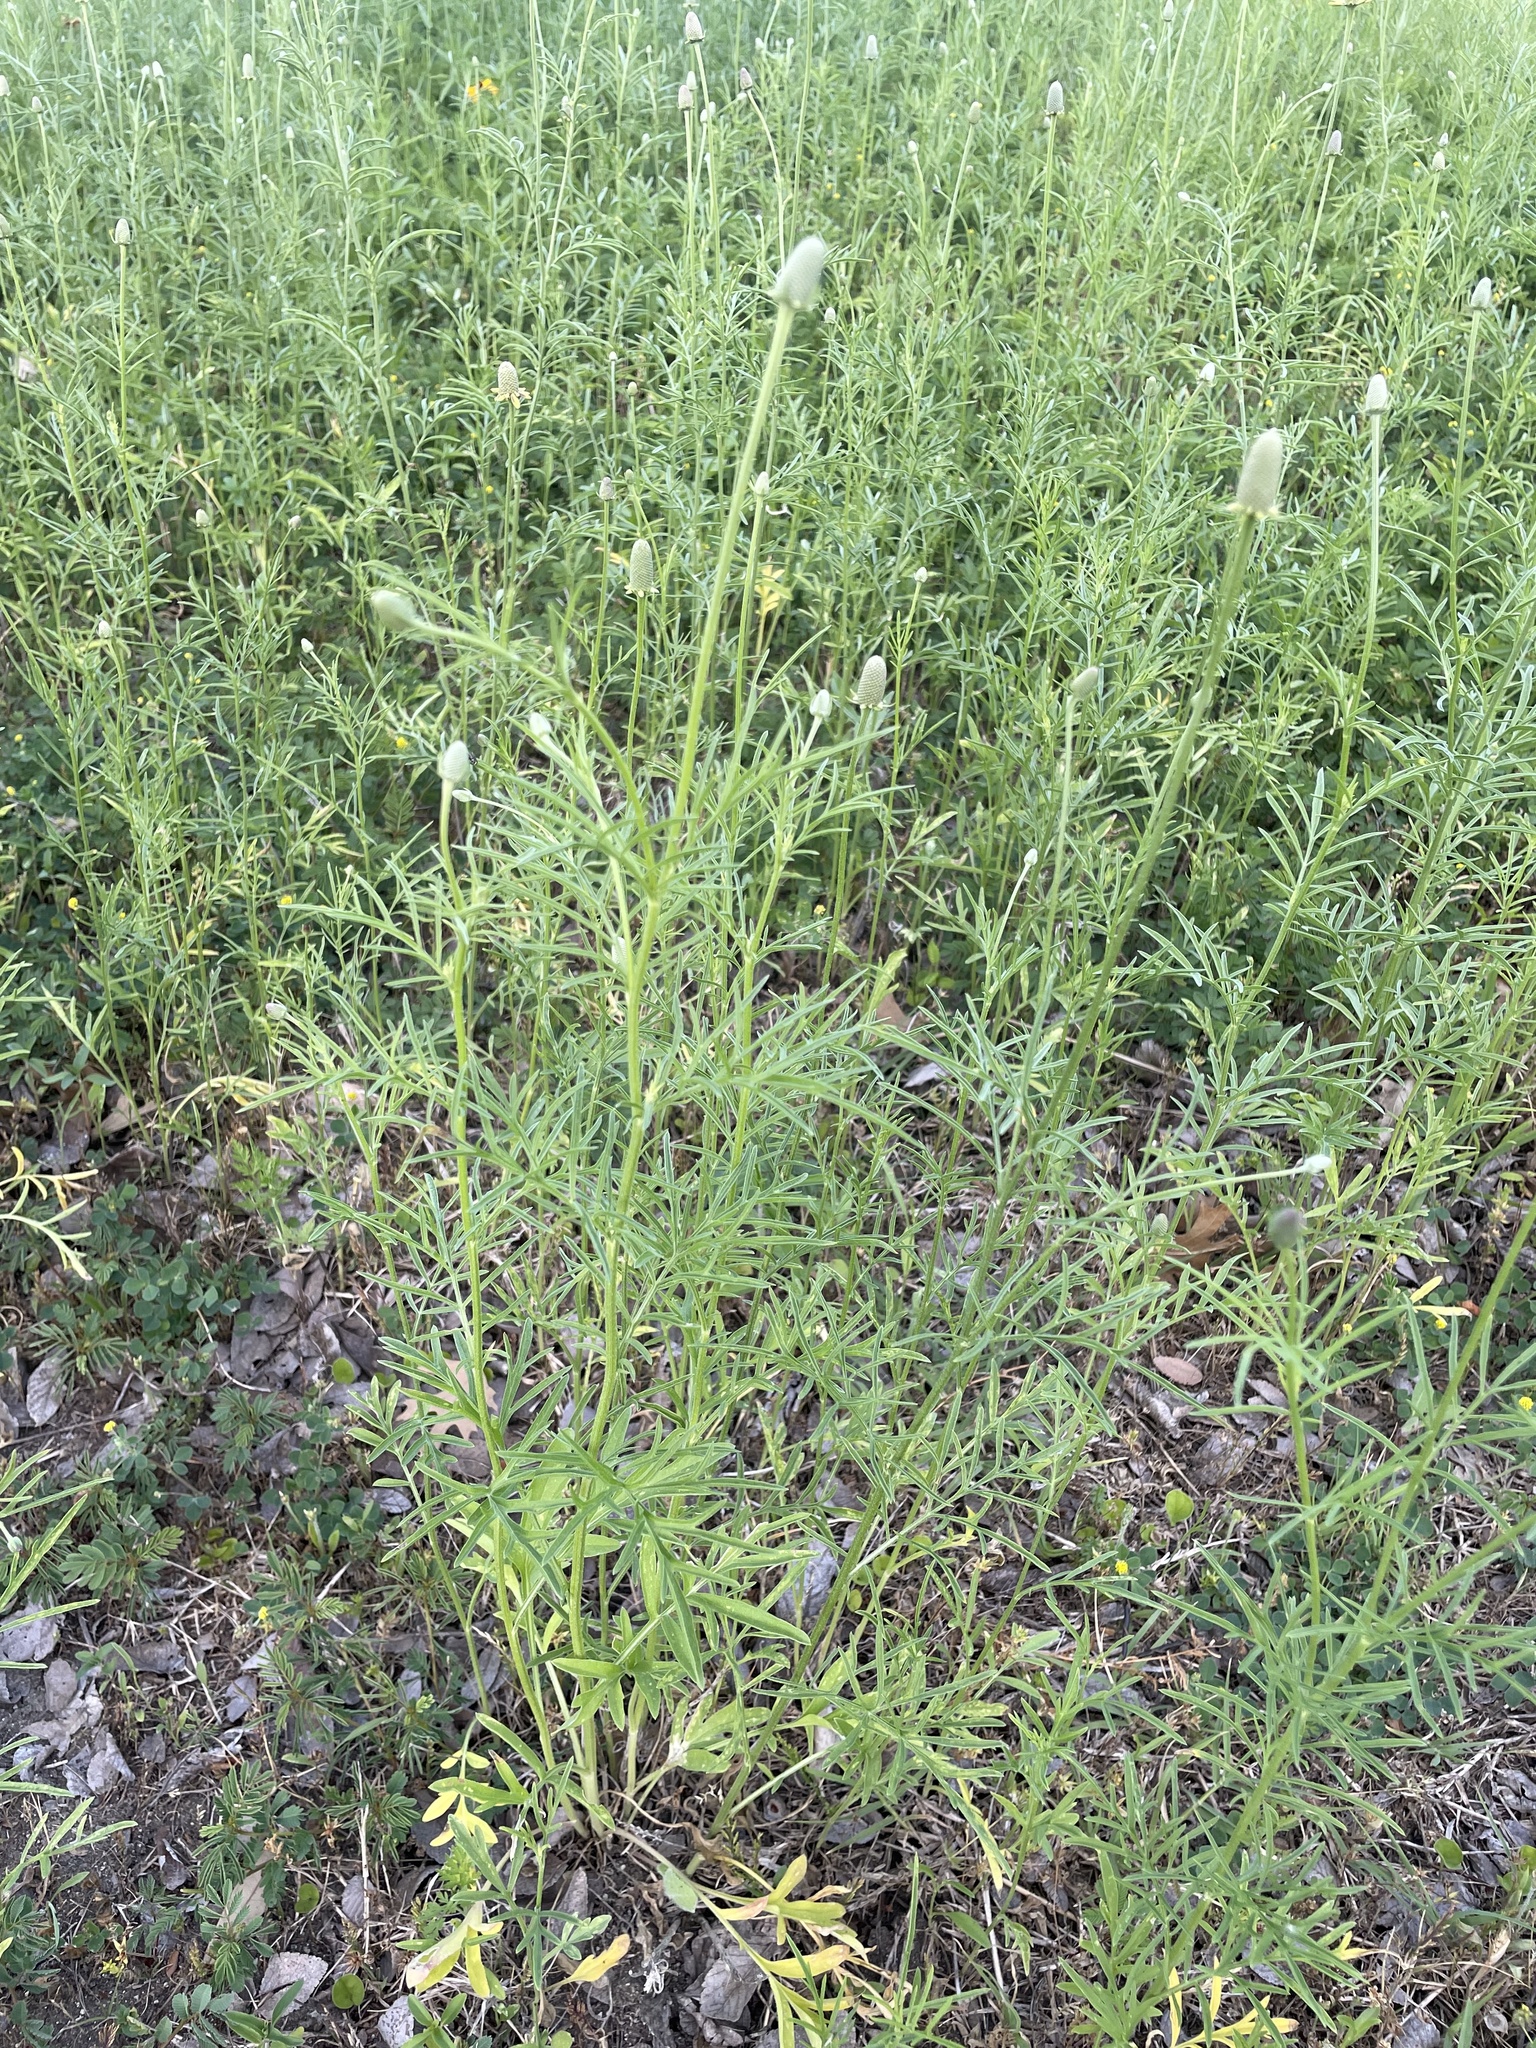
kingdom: Plantae
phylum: Tracheophyta
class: Magnoliopsida
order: Asterales
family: Asteraceae
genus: Ratibida
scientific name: Ratibida columnifera
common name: Prairie coneflower
